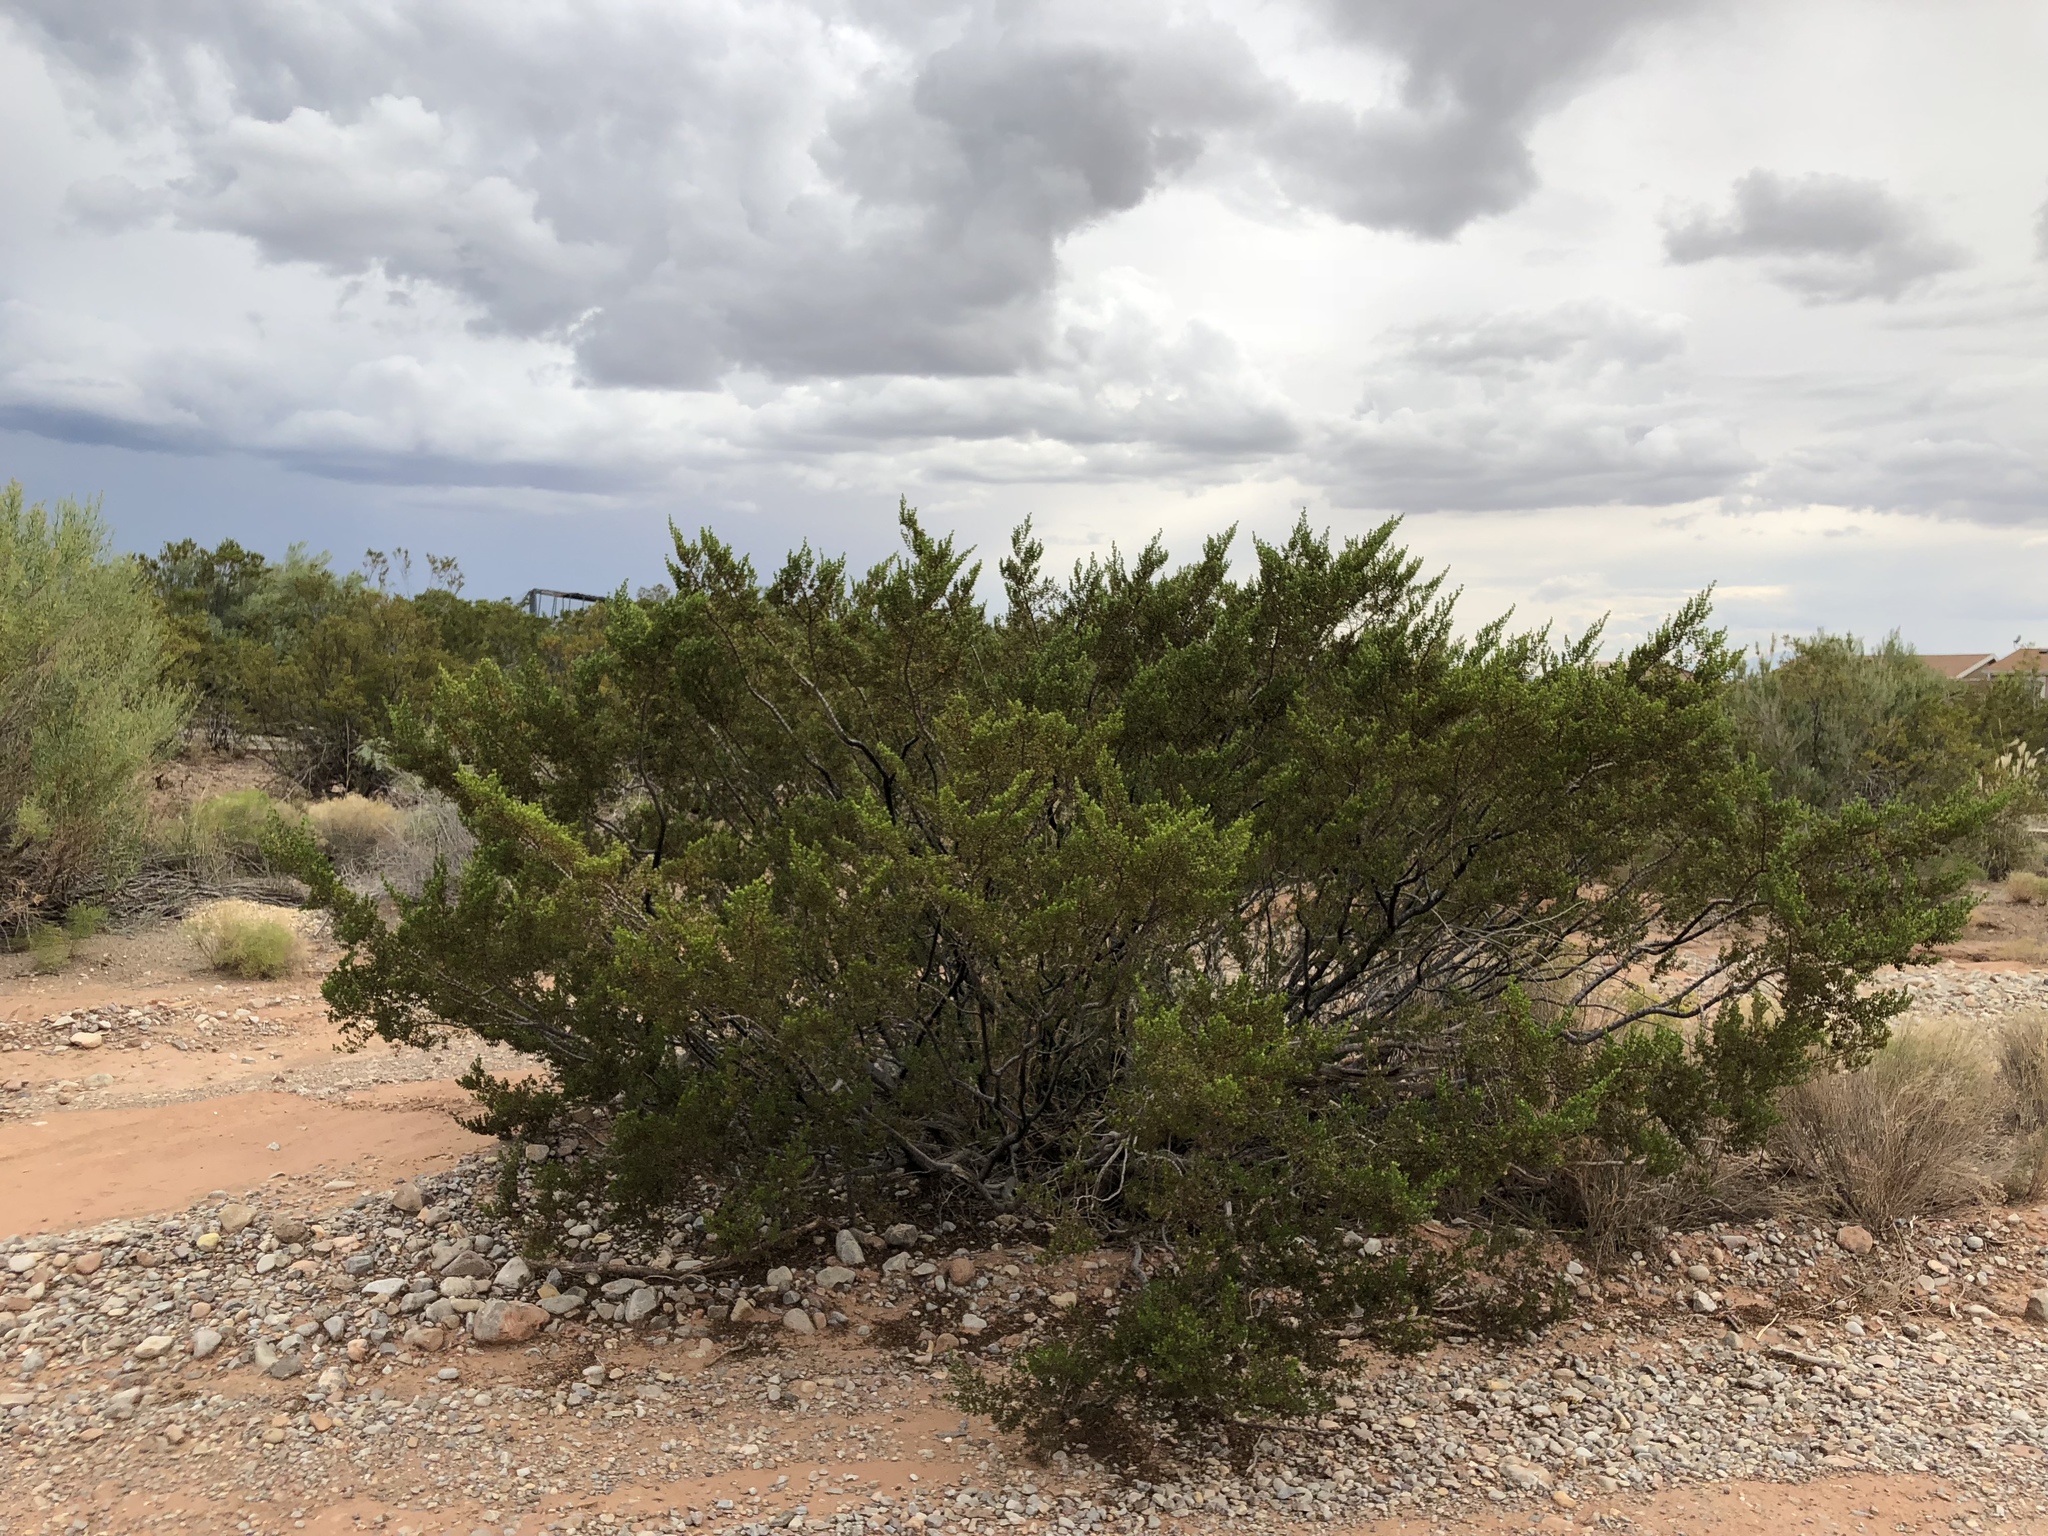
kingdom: Plantae
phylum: Tracheophyta
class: Magnoliopsida
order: Zygophyllales
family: Zygophyllaceae
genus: Larrea
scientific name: Larrea tridentata
